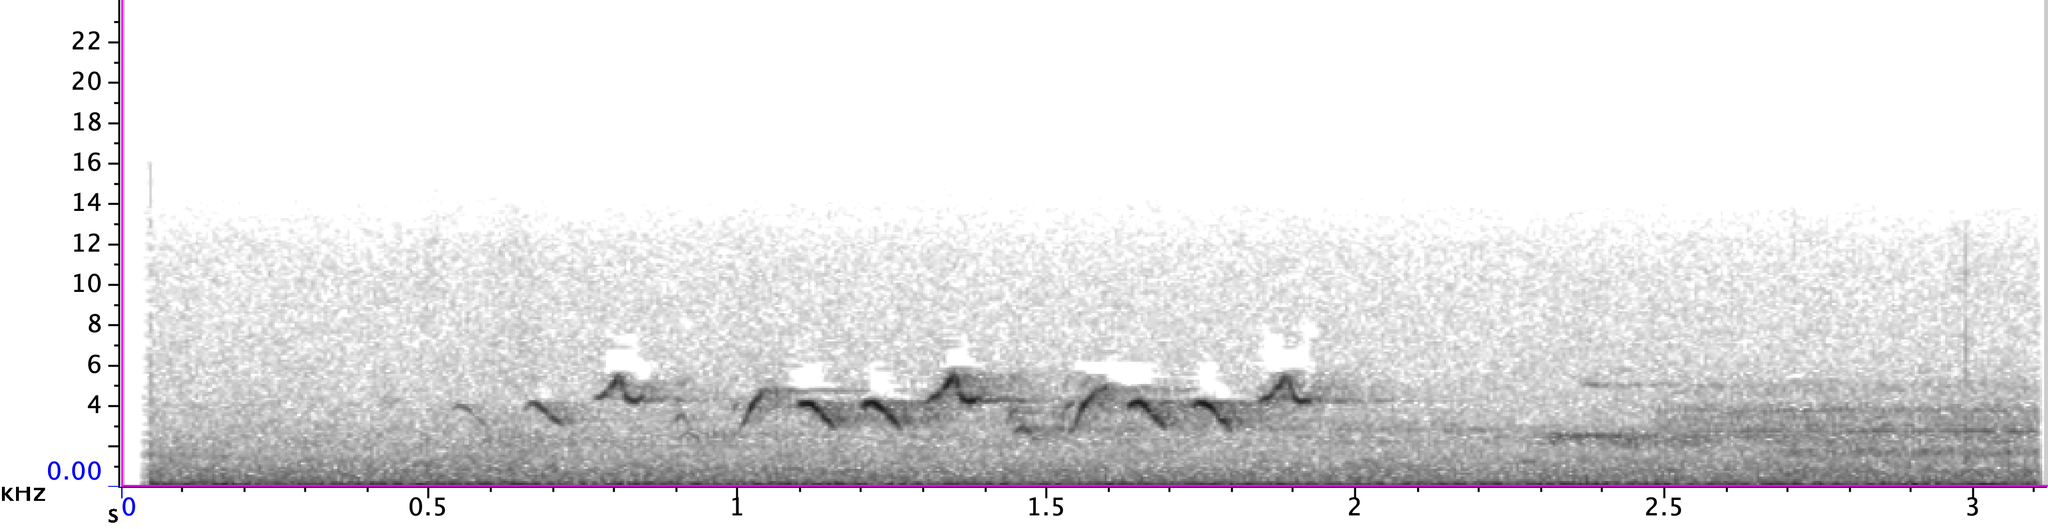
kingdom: Animalia
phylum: Chordata
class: Aves
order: Passeriformes
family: Parulidae
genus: Geothlypis
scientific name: Geothlypis trichas
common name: Common yellowthroat
